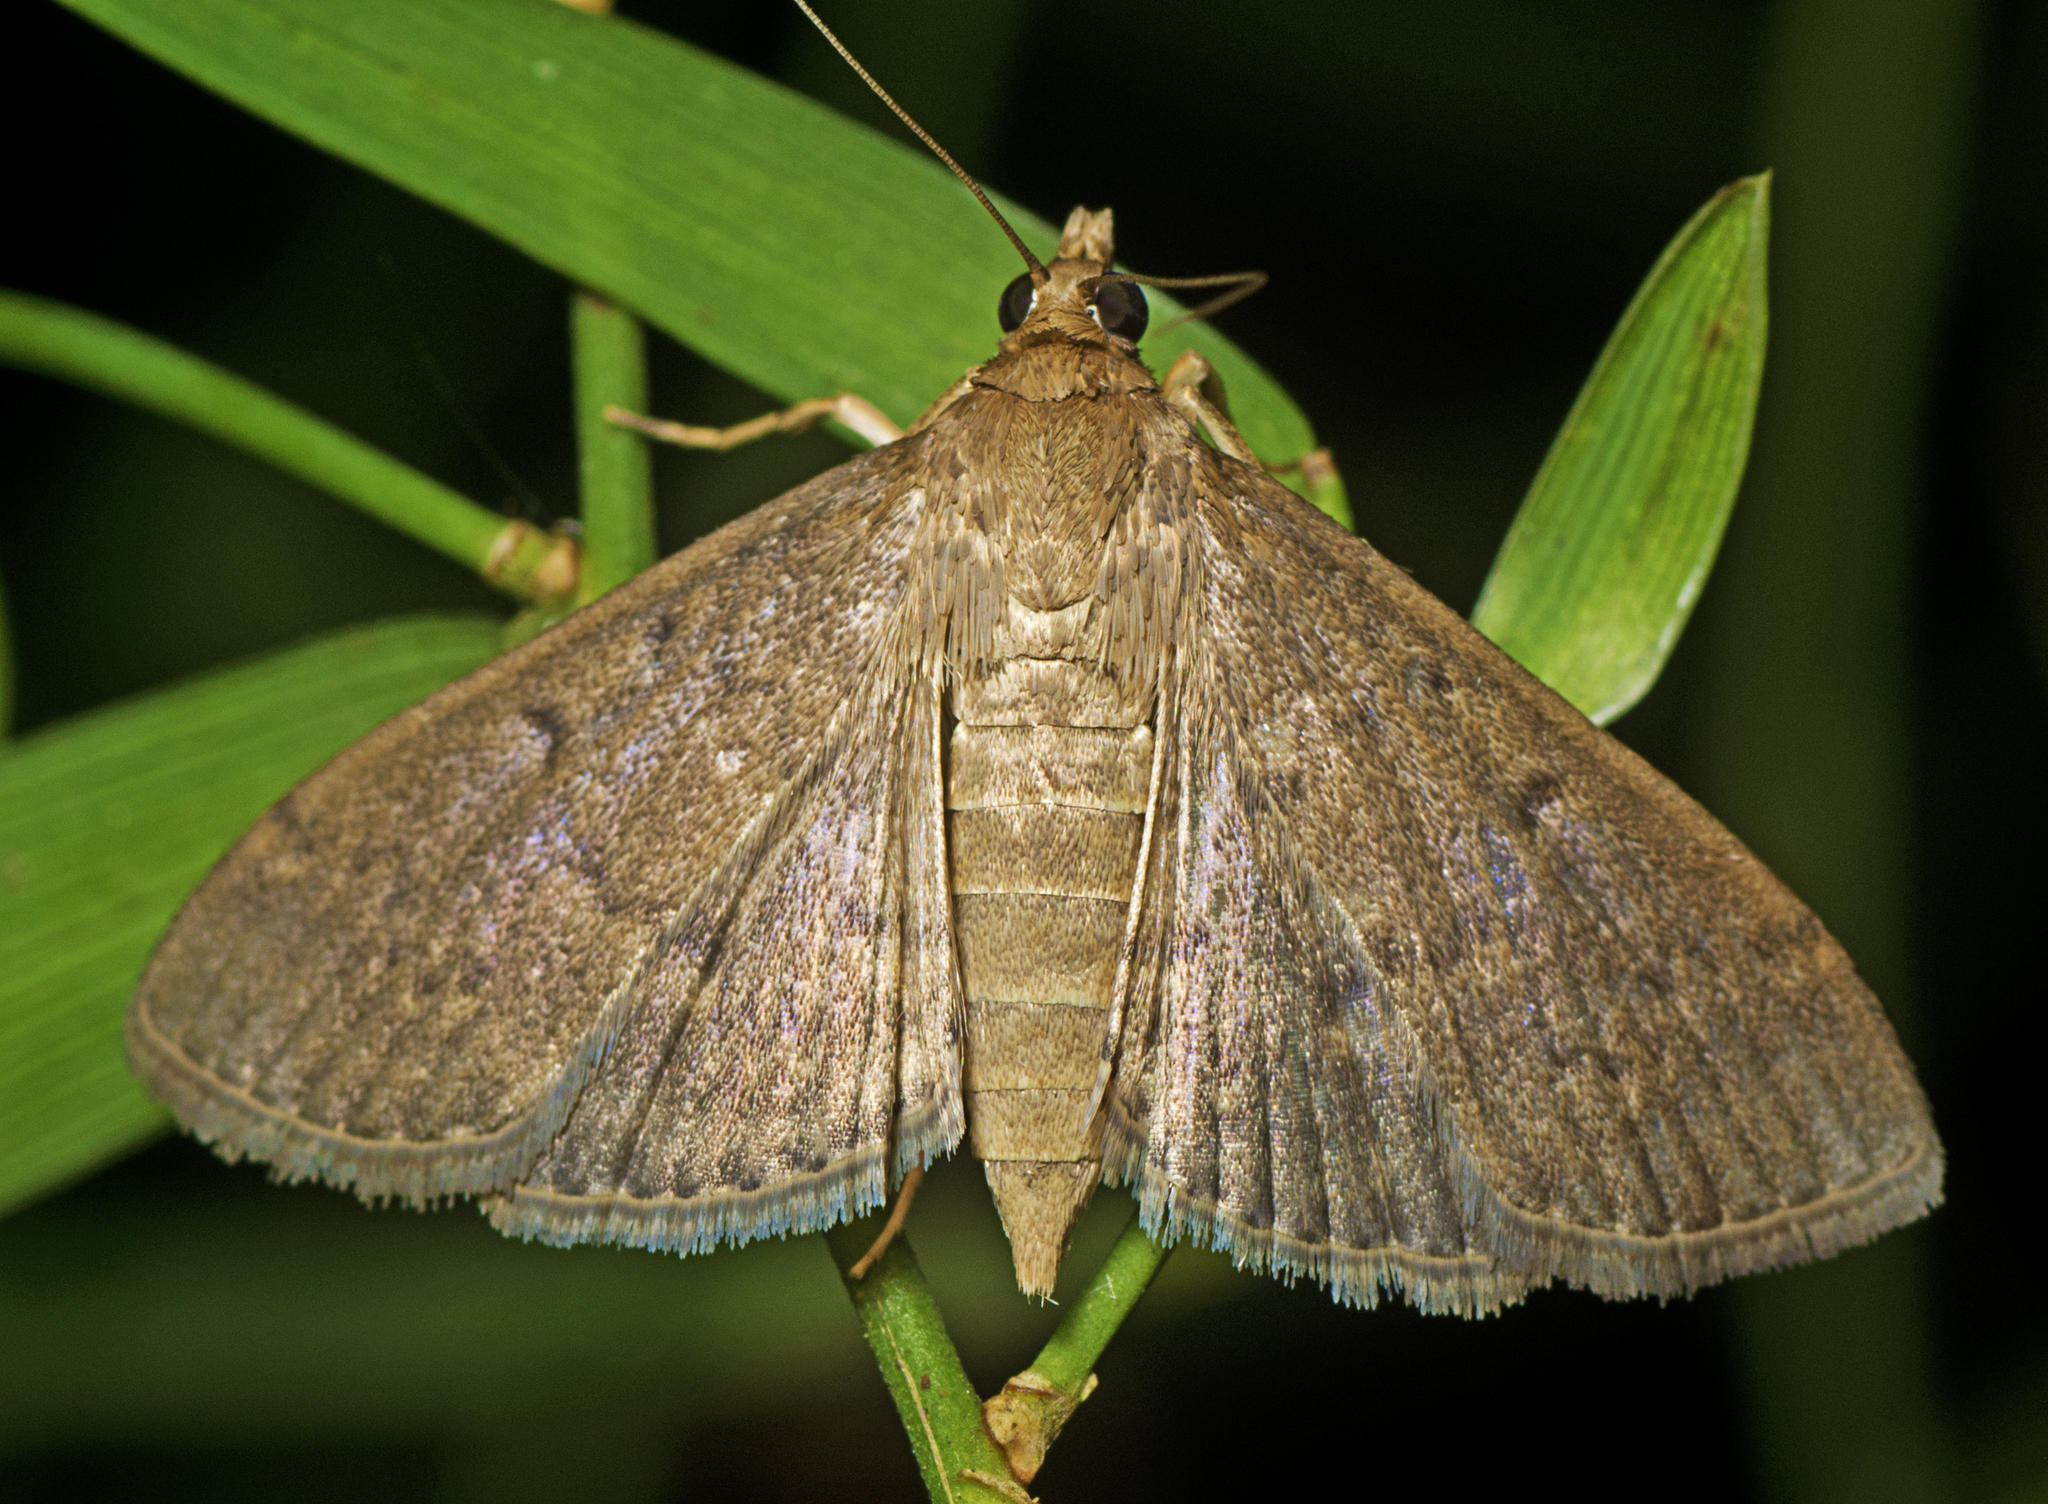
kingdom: Animalia
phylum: Arthropoda
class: Insecta
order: Lepidoptera
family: Crambidae
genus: Herpetogramma
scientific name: Herpetogramma licarsisalis
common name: Grass webworm
